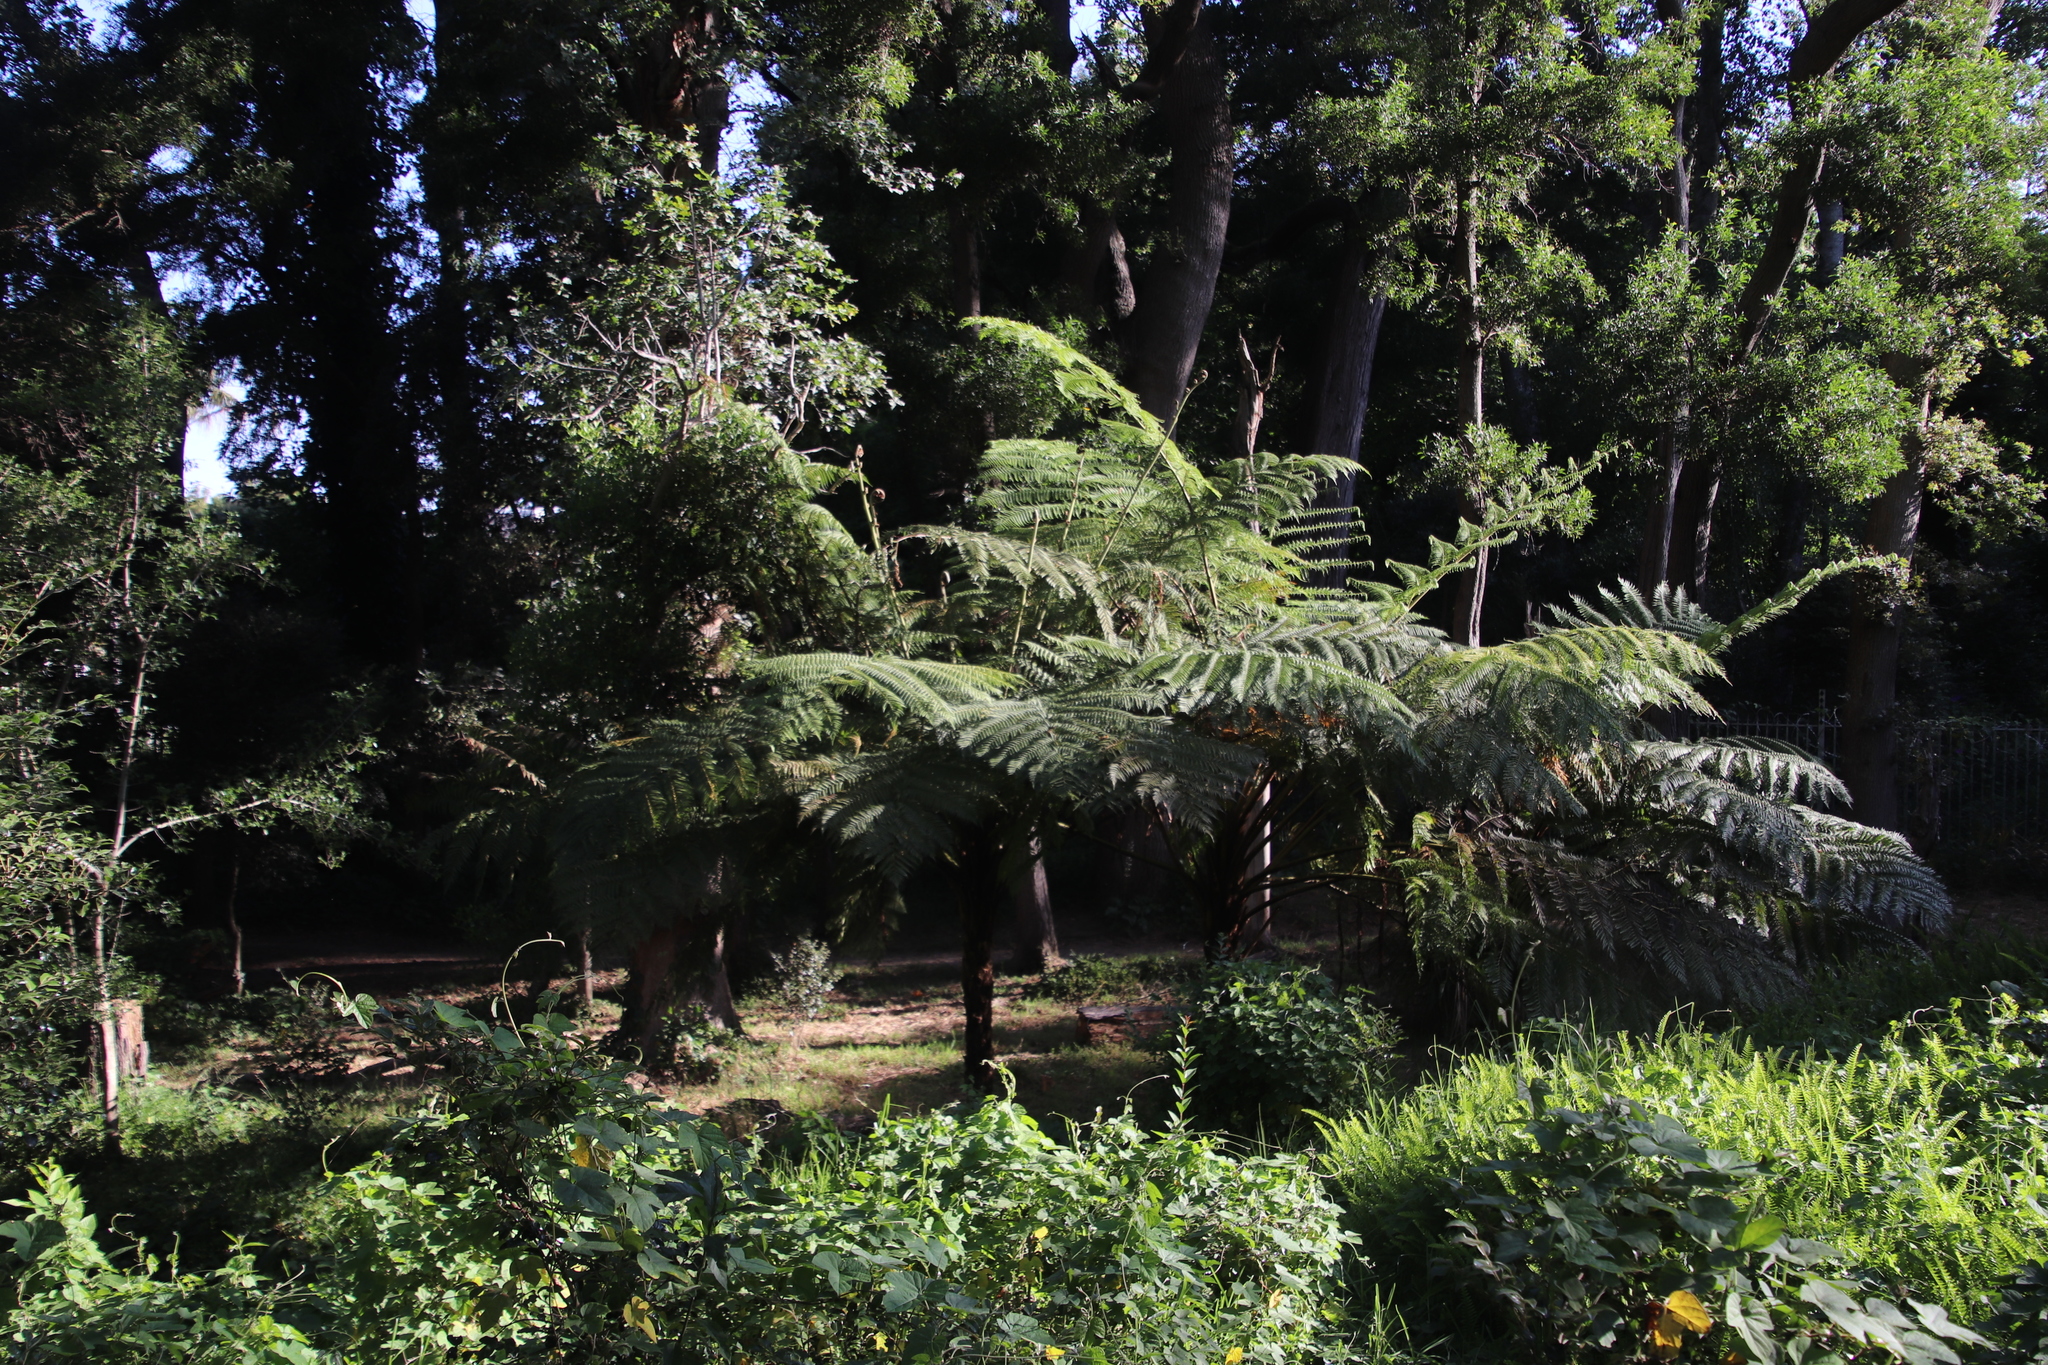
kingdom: Plantae
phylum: Tracheophyta
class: Polypodiopsida
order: Cyatheales
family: Cyatheaceae
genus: Sphaeropteris
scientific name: Sphaeropteris cooperi
